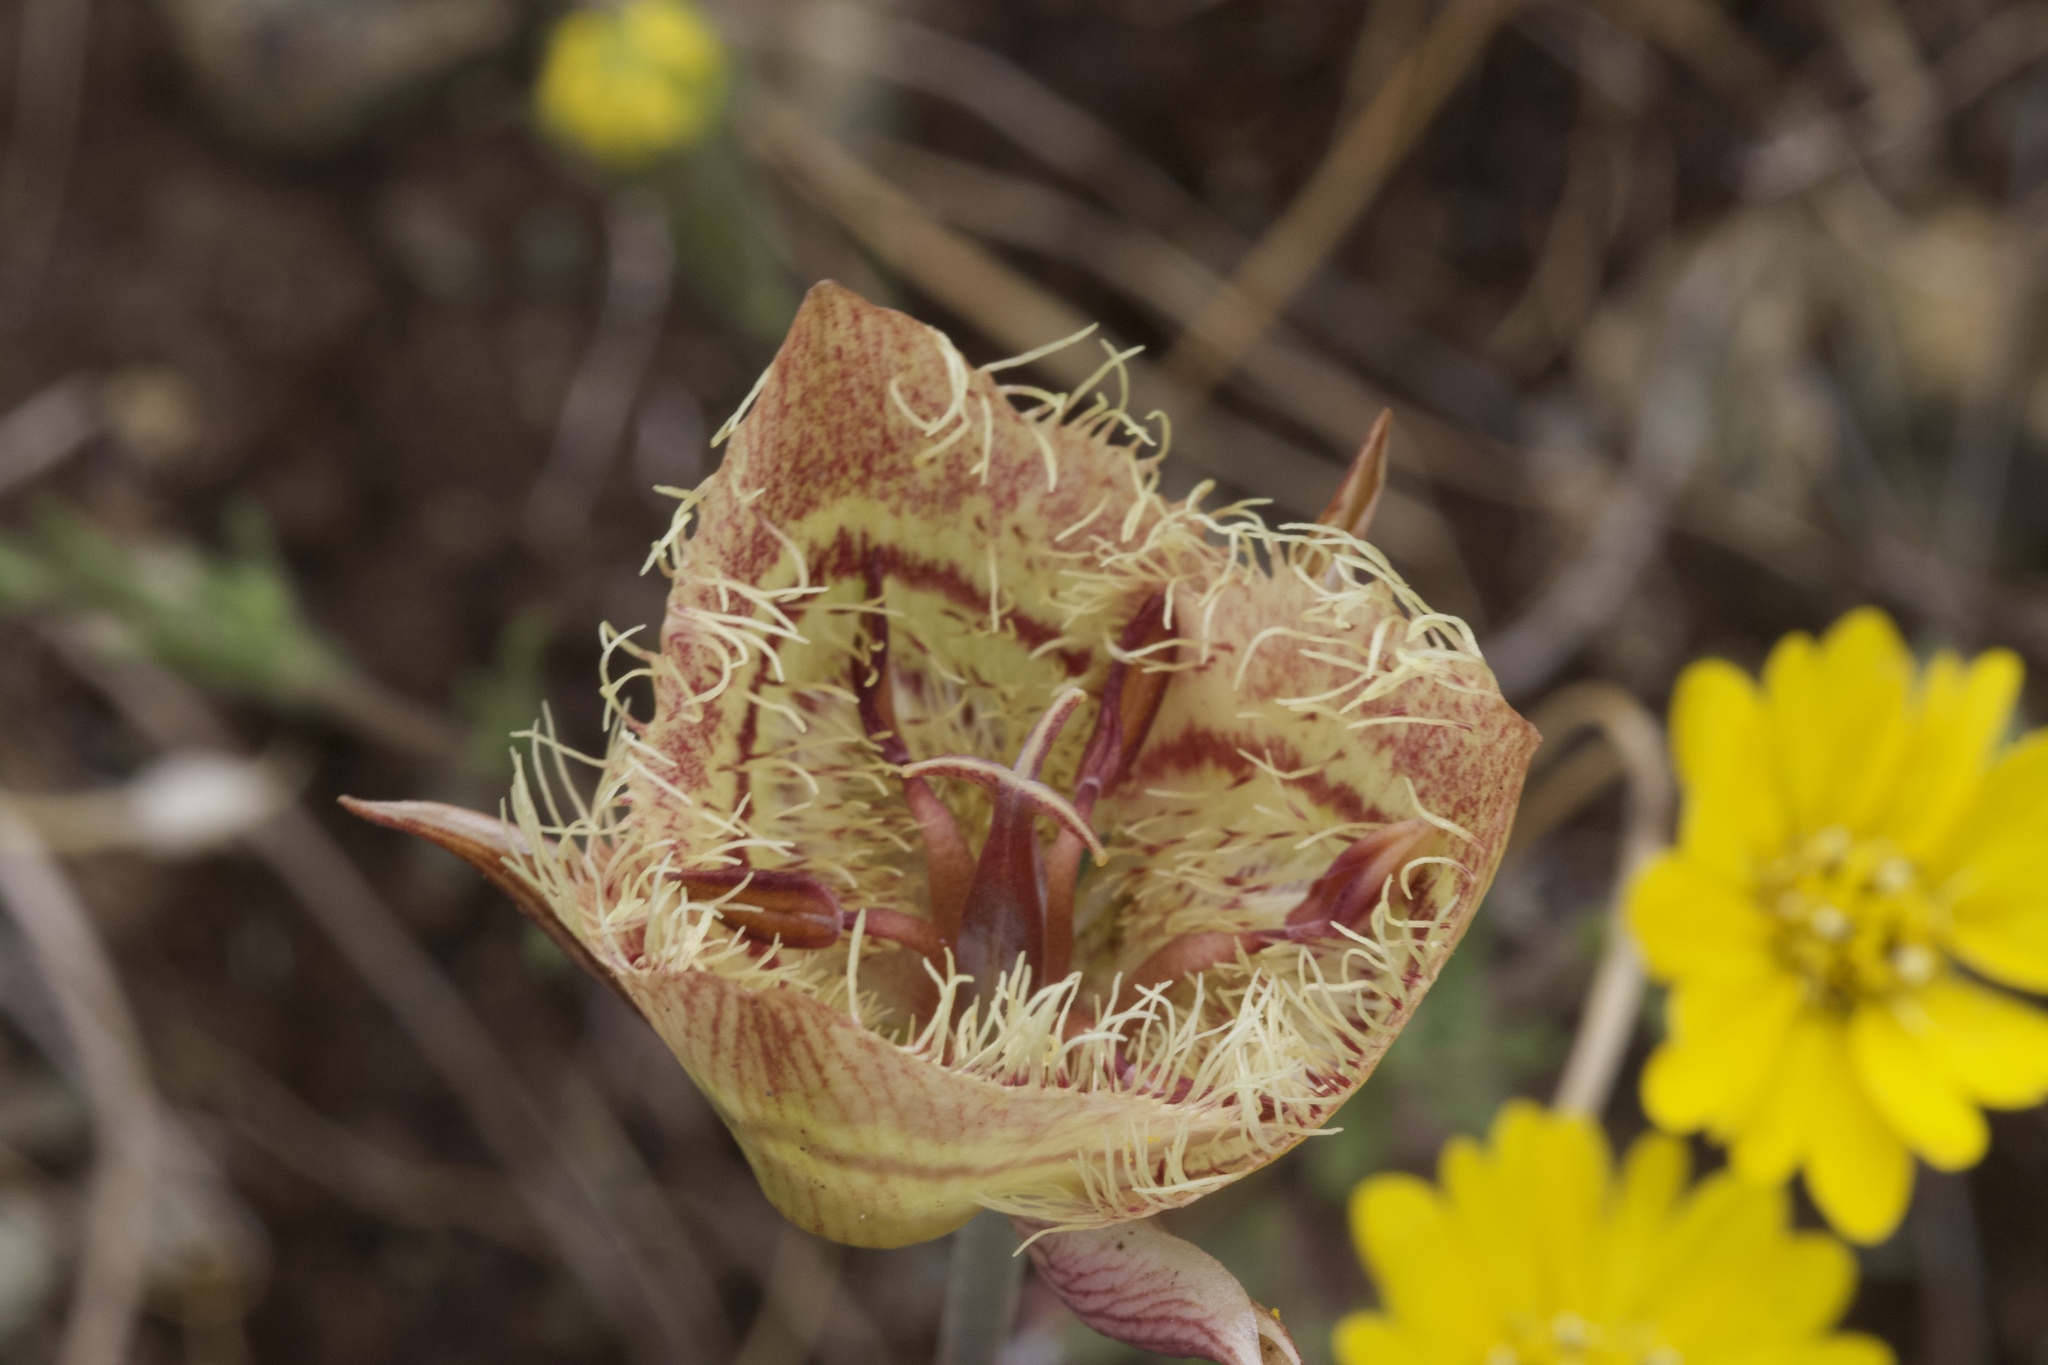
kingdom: Plantae
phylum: Tracheophyta
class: Liliopsida
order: Liliales
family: Liliaceae
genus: Calochortus
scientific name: Calochortus tiburonensis
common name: Tiburon mariposa-lily
